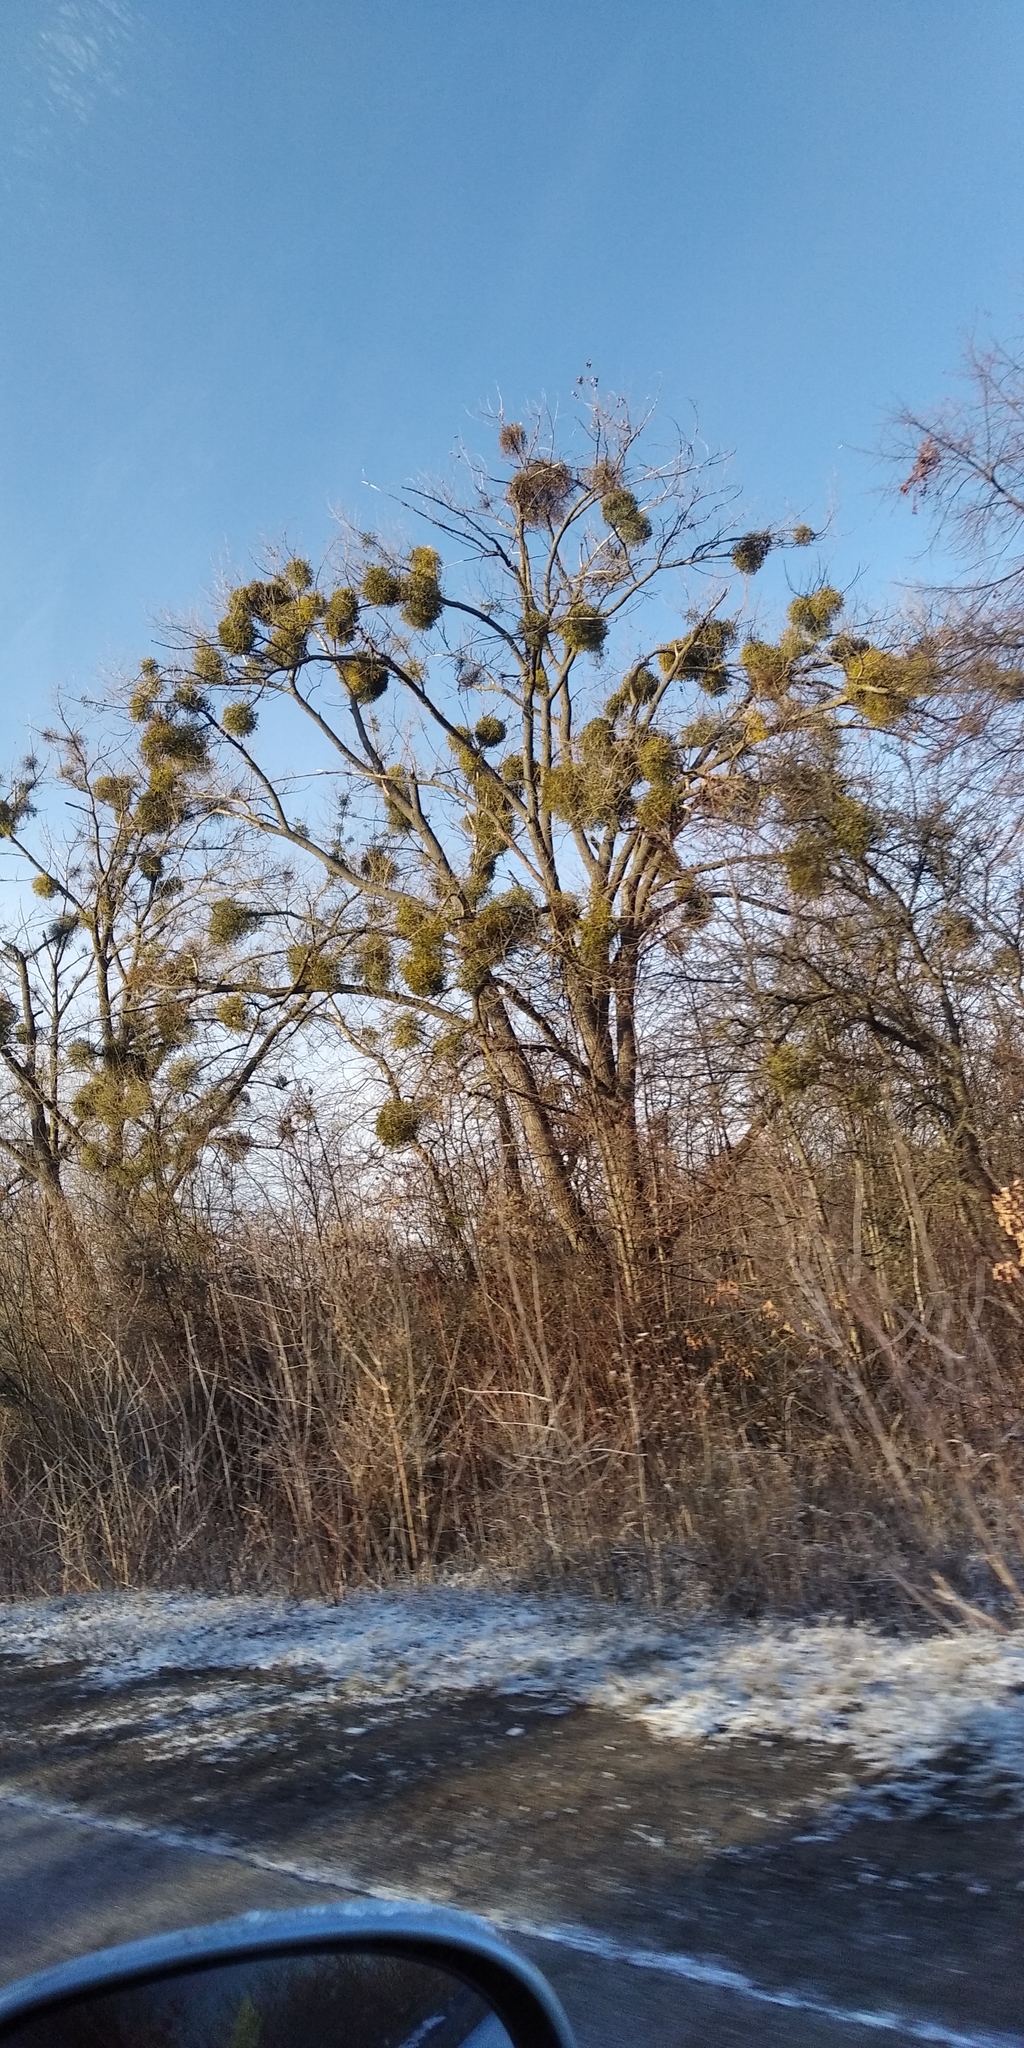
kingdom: Plantae
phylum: Tracheophyta
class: Magnoliopsida
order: Santalales
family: Viscaceae
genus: Viscum
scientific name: Viscum album
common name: Mistletoe
